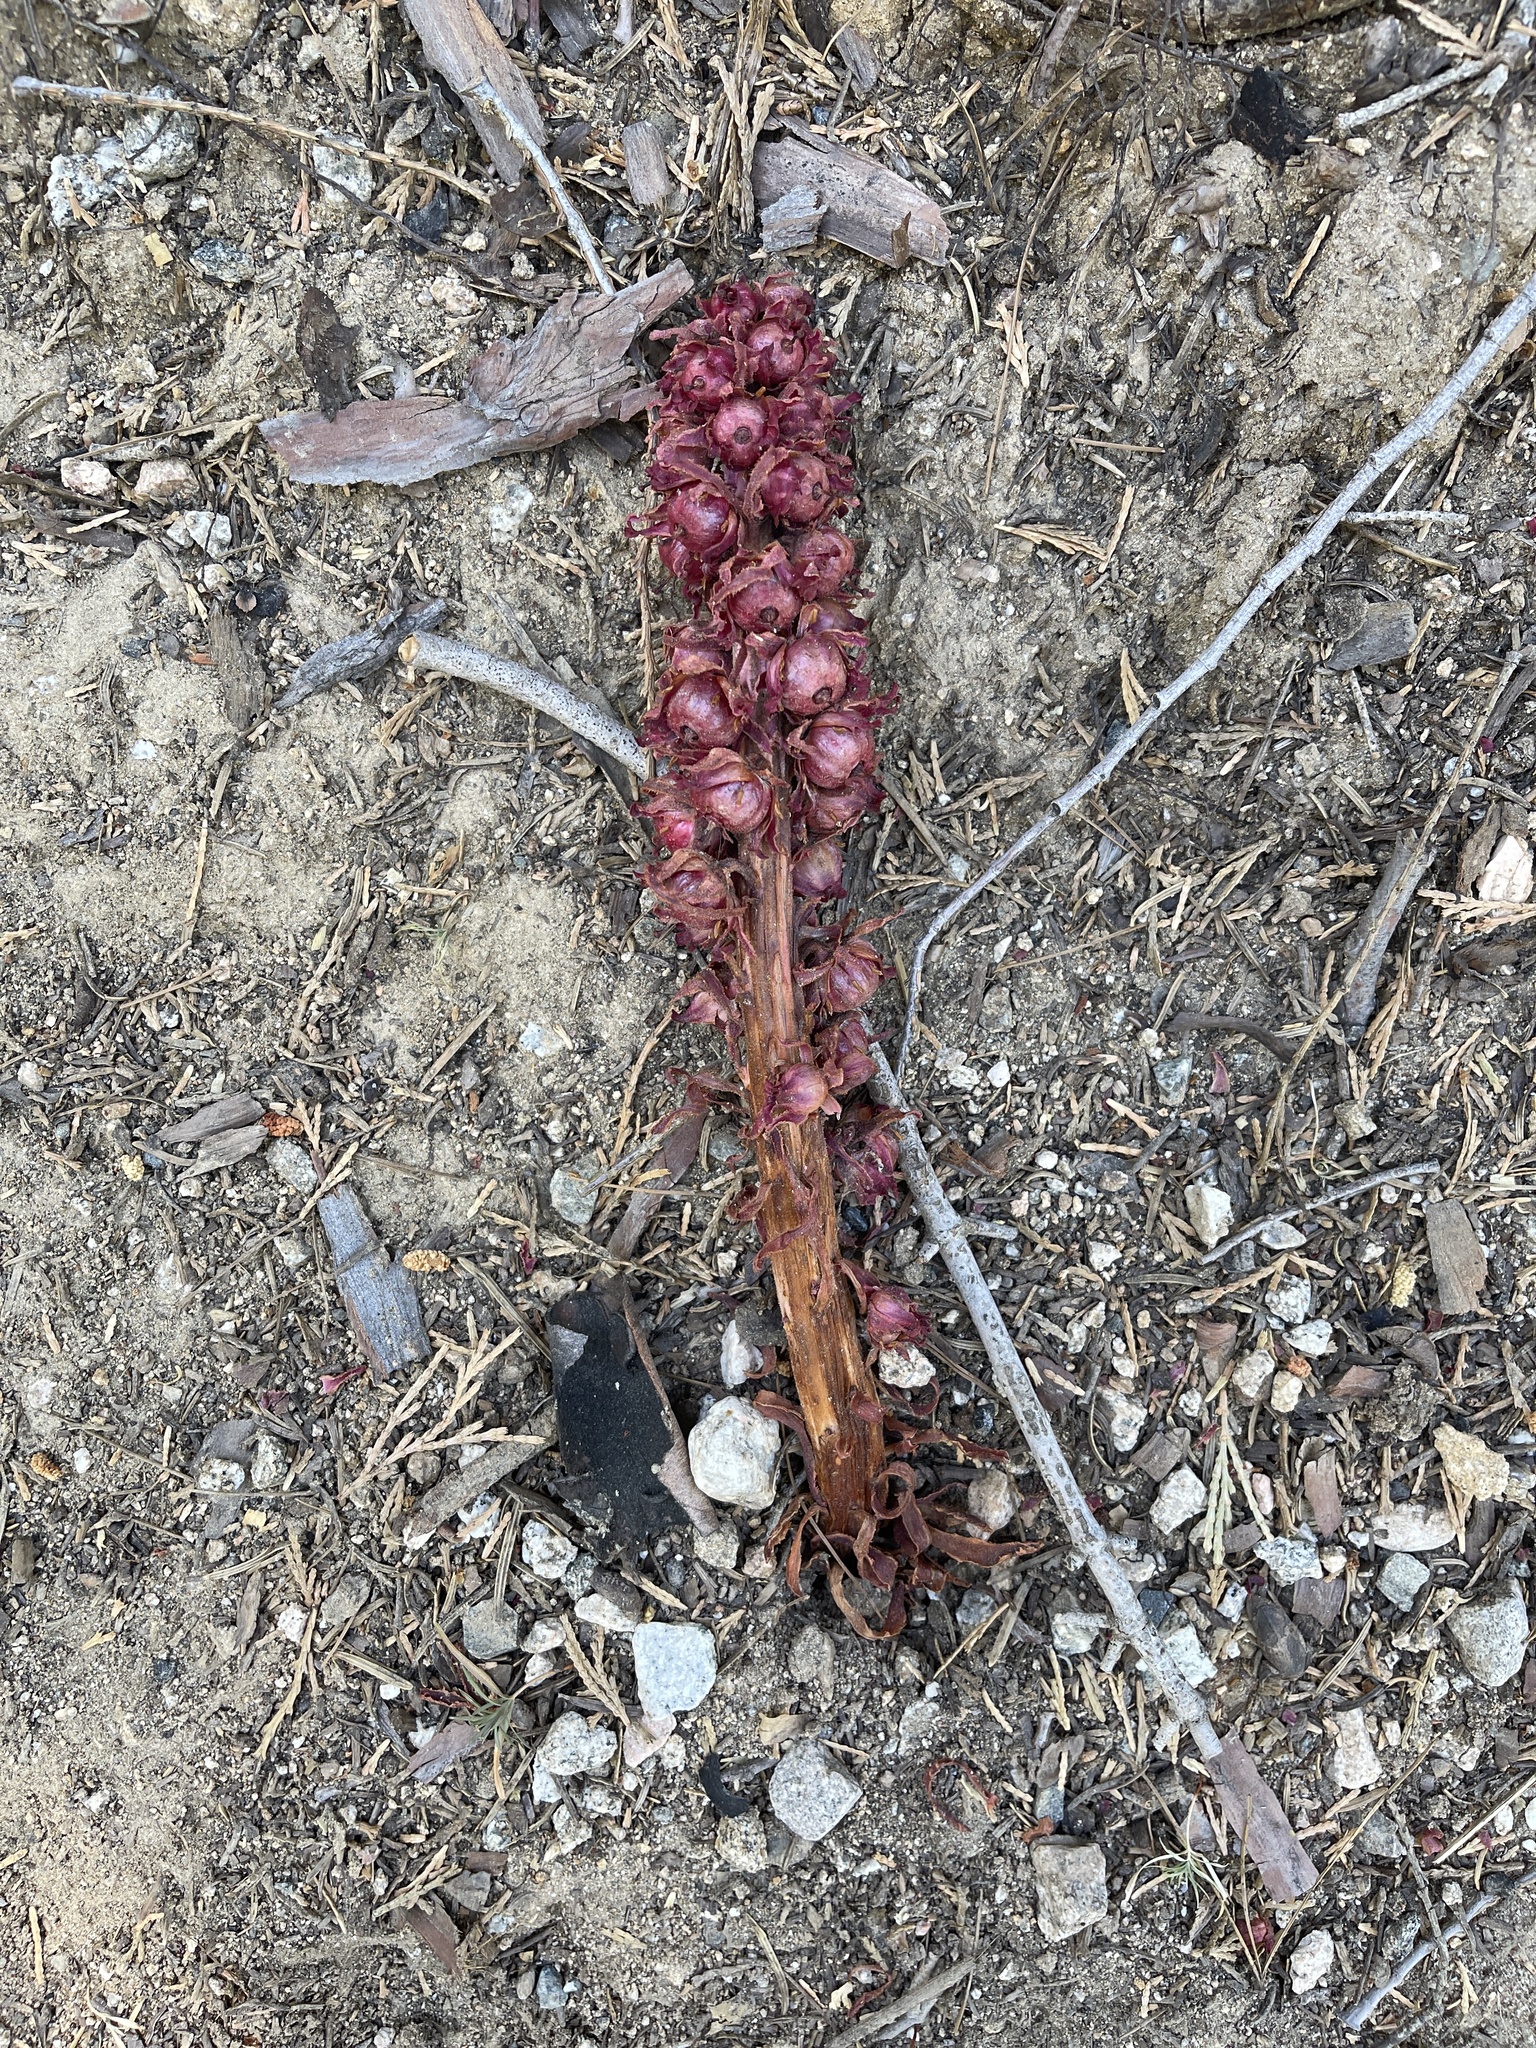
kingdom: Plantae
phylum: Tracheophyta
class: Magnoliopsida
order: Ericales
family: Ericaceae
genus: Sarcodes
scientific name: Sarcodes sanguinea
